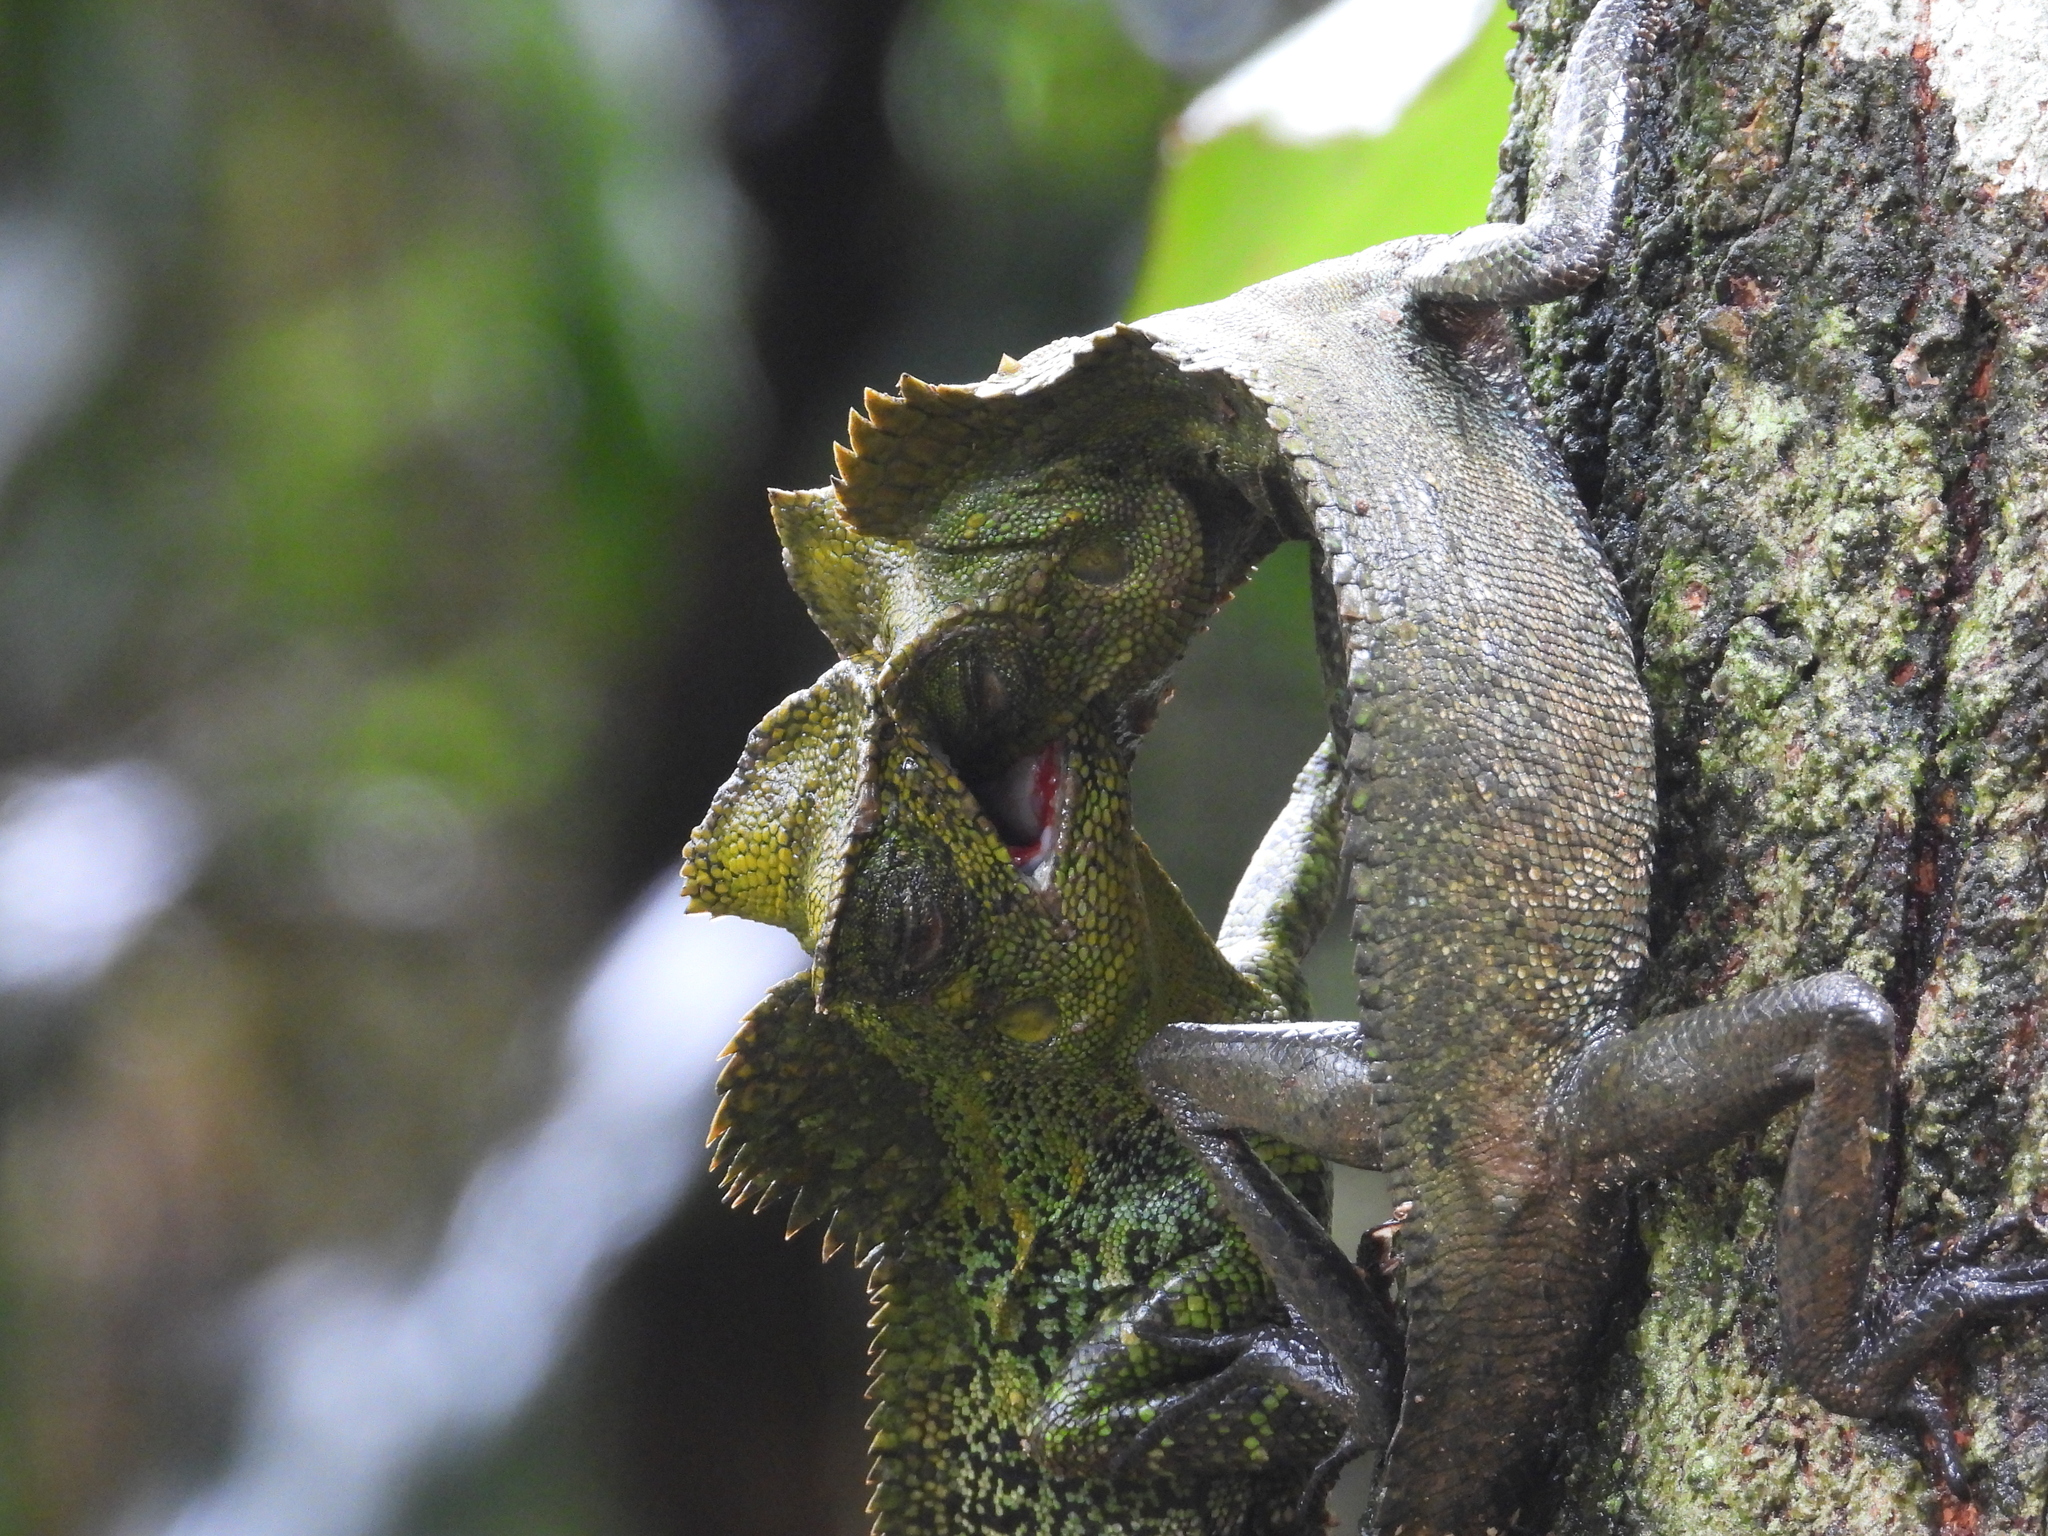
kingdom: Animalia
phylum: Chordata
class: Squamata
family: Agamidae
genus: Gonocephalus
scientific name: Gonocephalus kuhlii
